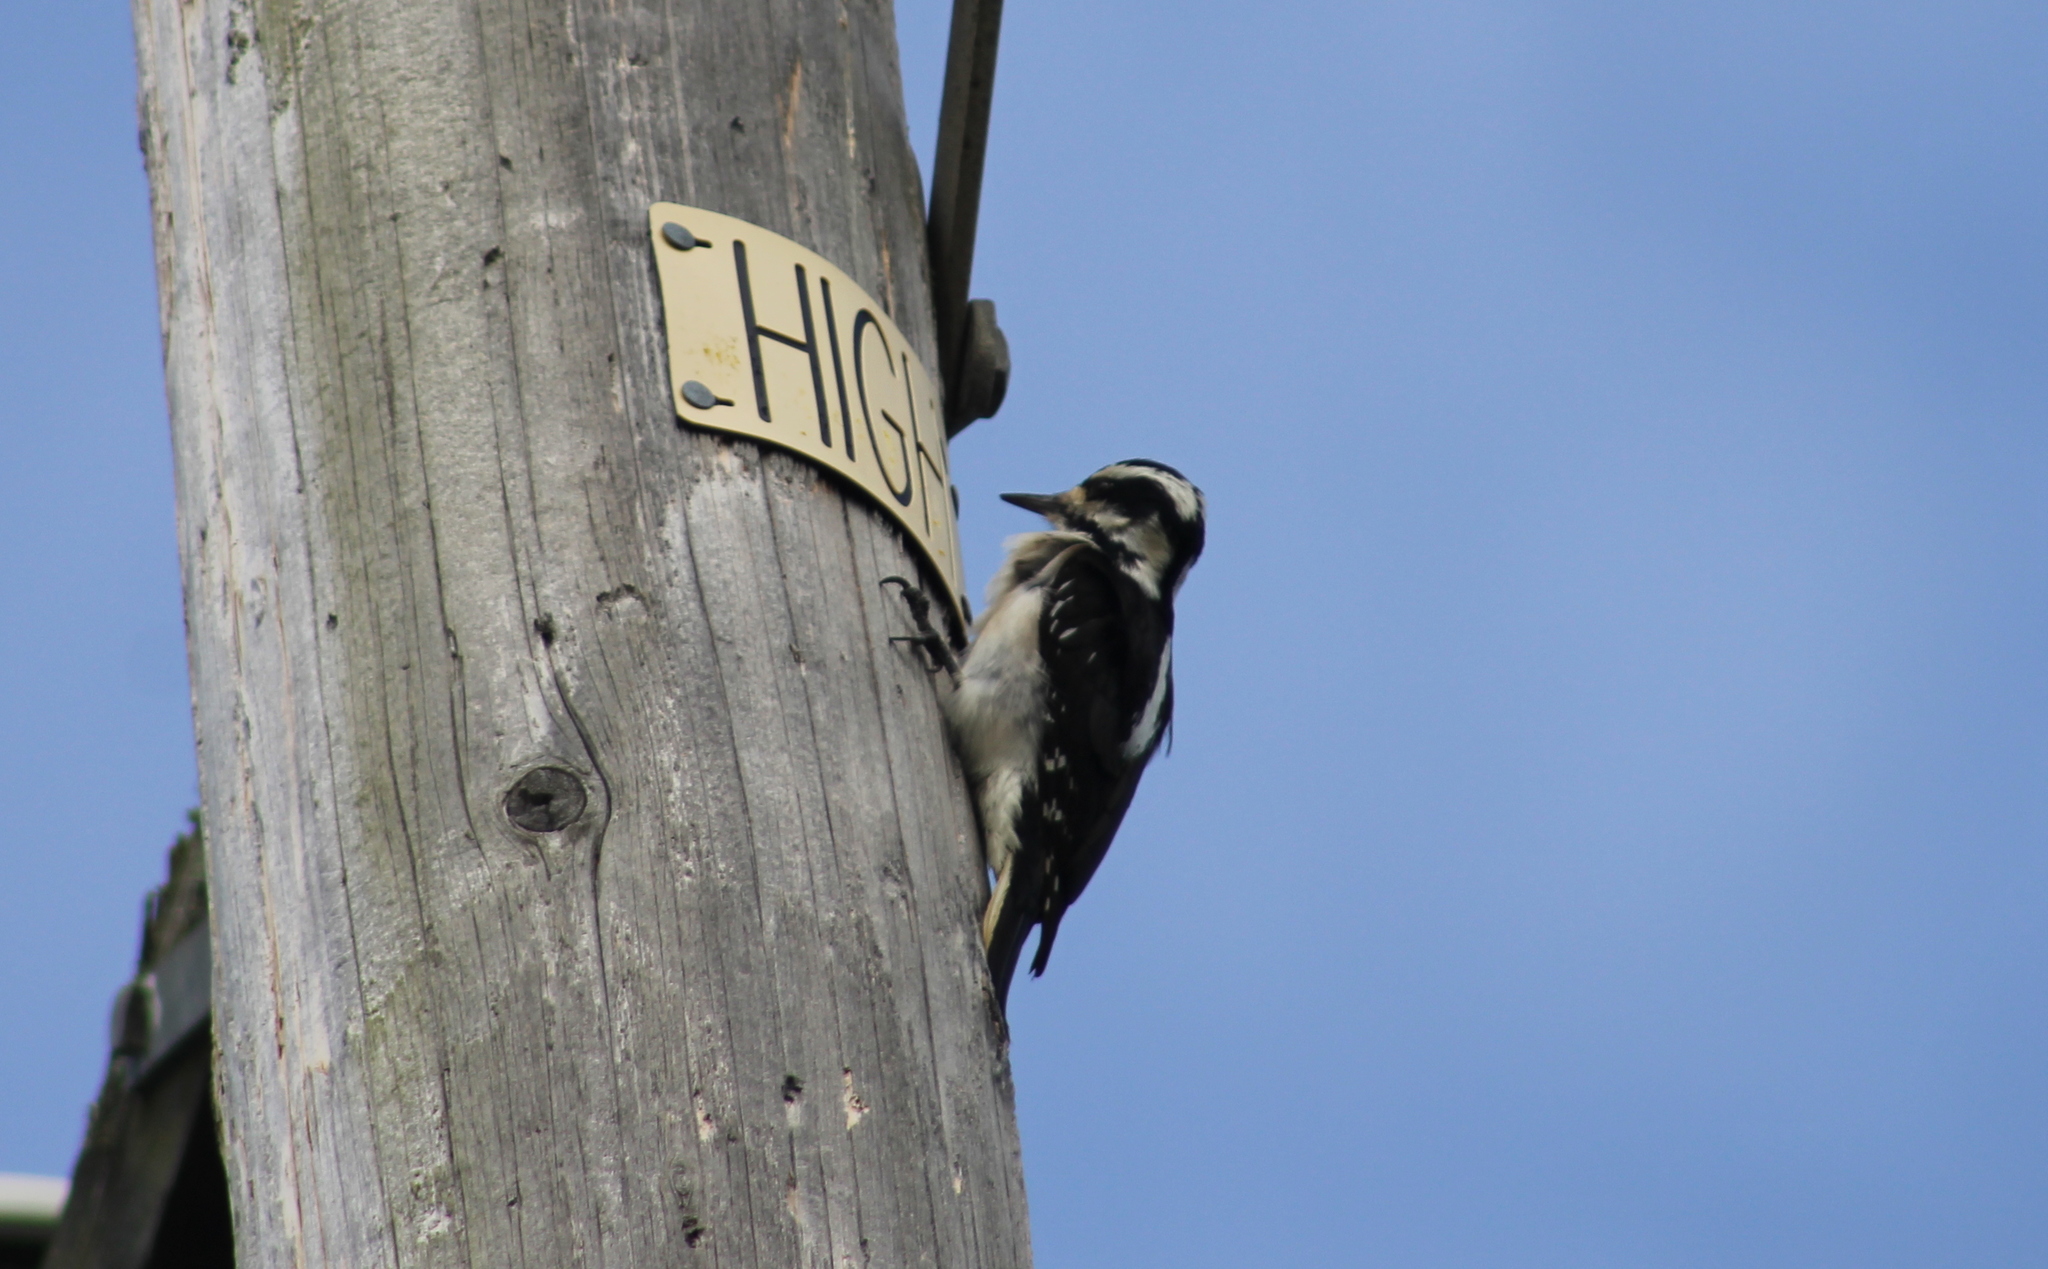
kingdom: Animalia
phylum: Chordata
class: Aves
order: Piciformes
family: Picidae
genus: Leuconotopicus
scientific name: Leuconotopicus villosus
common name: Hairy woodpecker
